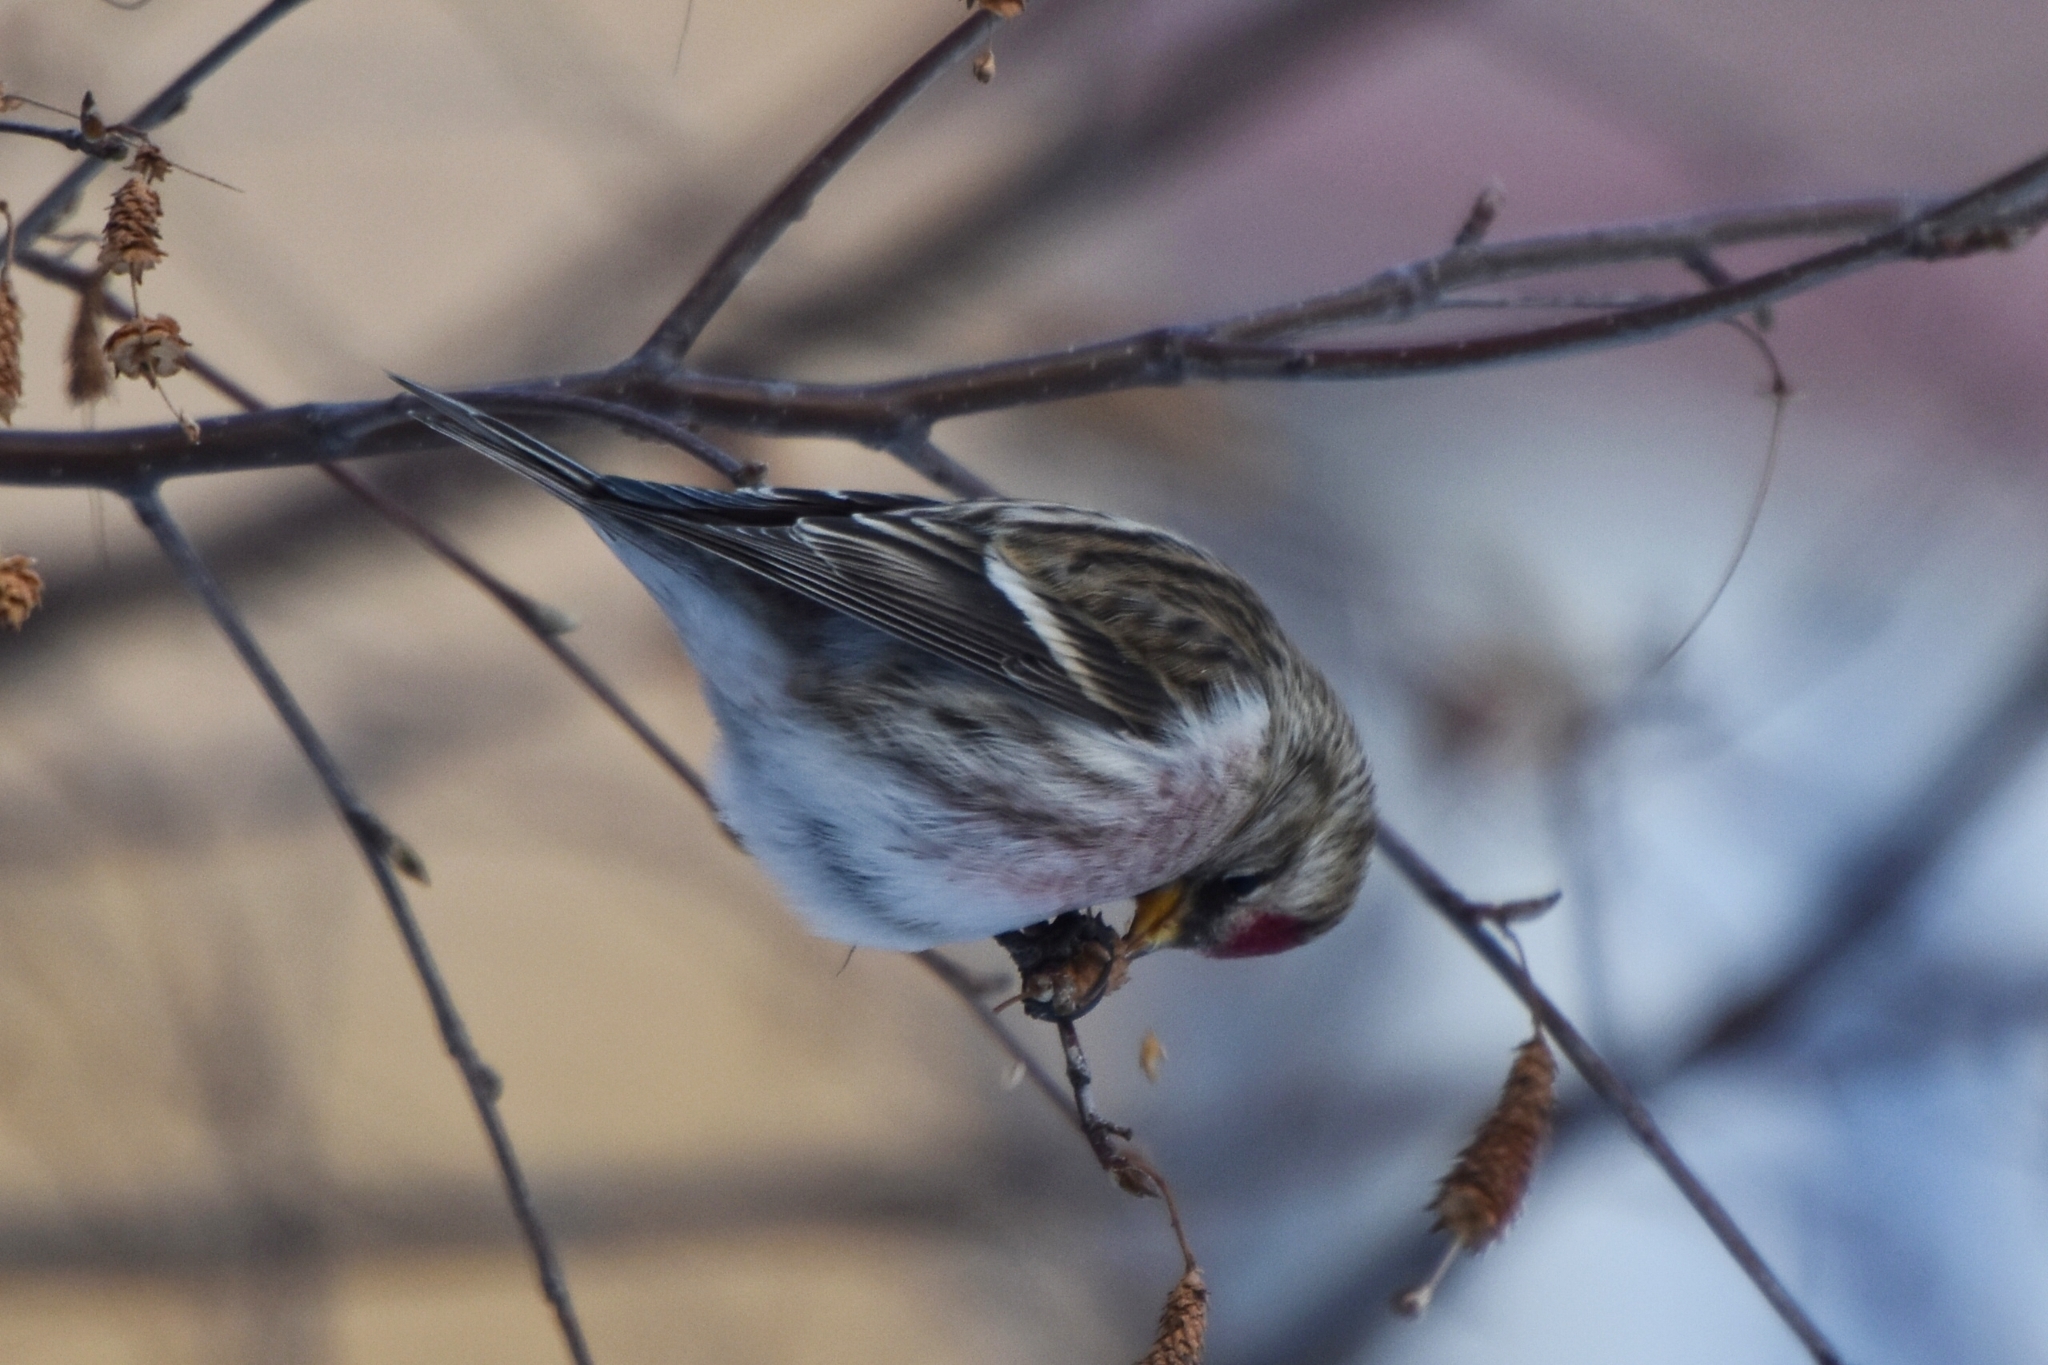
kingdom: Animalia
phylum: Chordata
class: Aves
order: Passeriformes
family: Fringillidae
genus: Acanthis
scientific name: Acanthis flammea
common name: Common redpoll
